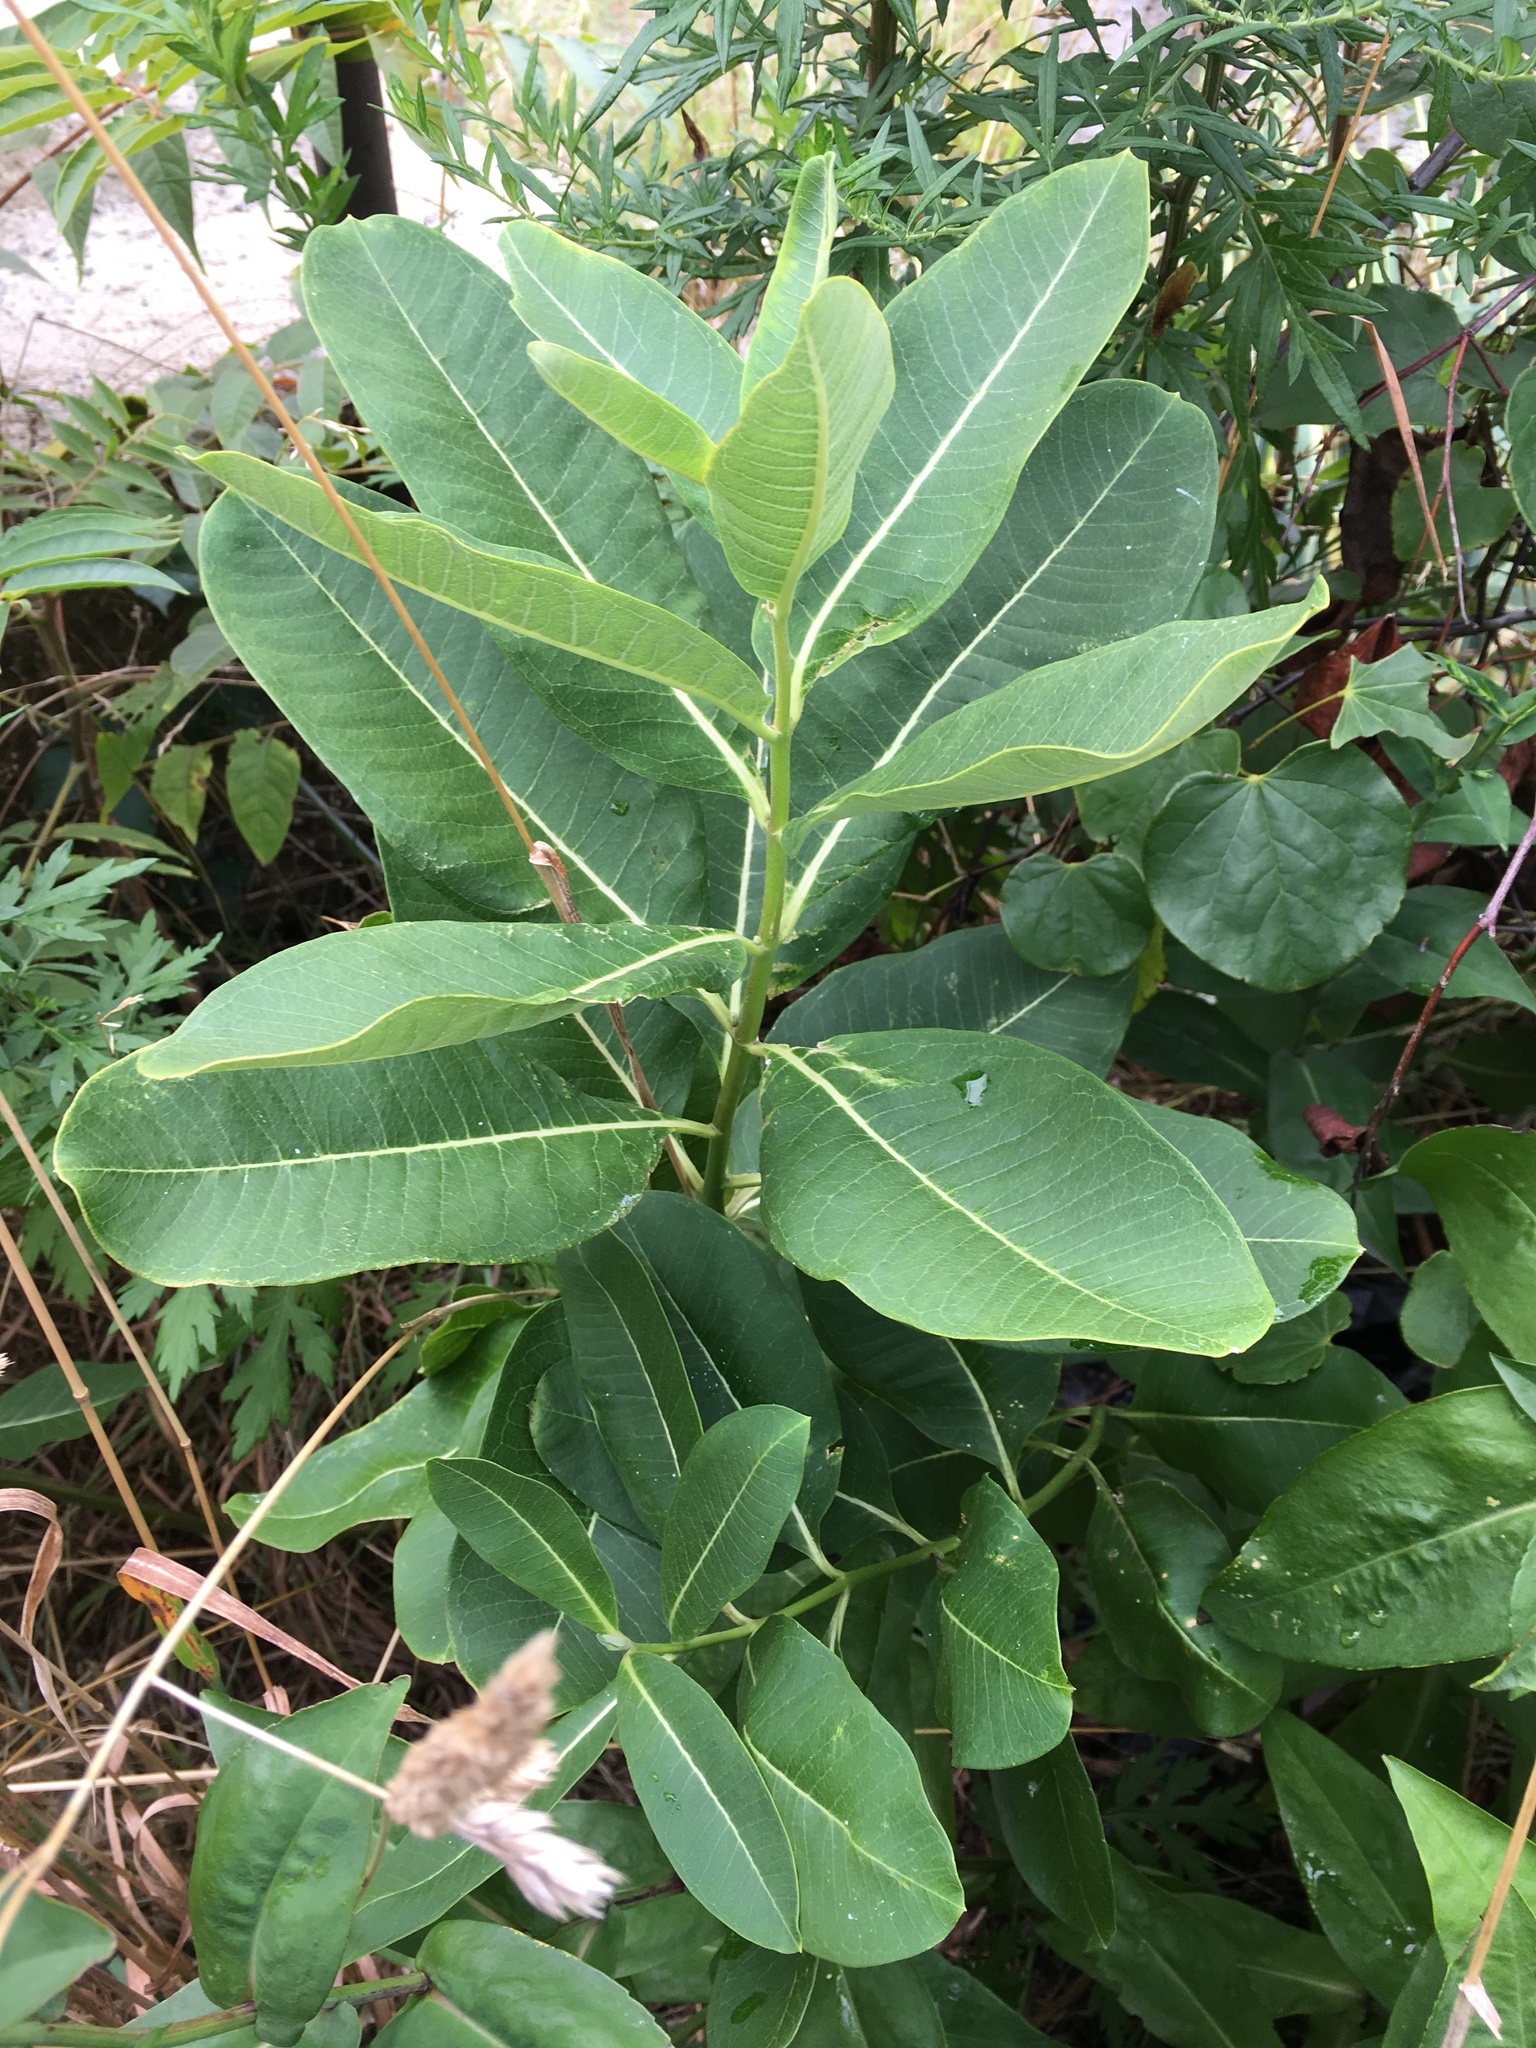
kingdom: Plantae
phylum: Tracheophyta
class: Magnoliopsida
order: Gentianales
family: Apocynaceae
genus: Asclepias
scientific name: Asclepias syriaca
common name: Common milkweed
